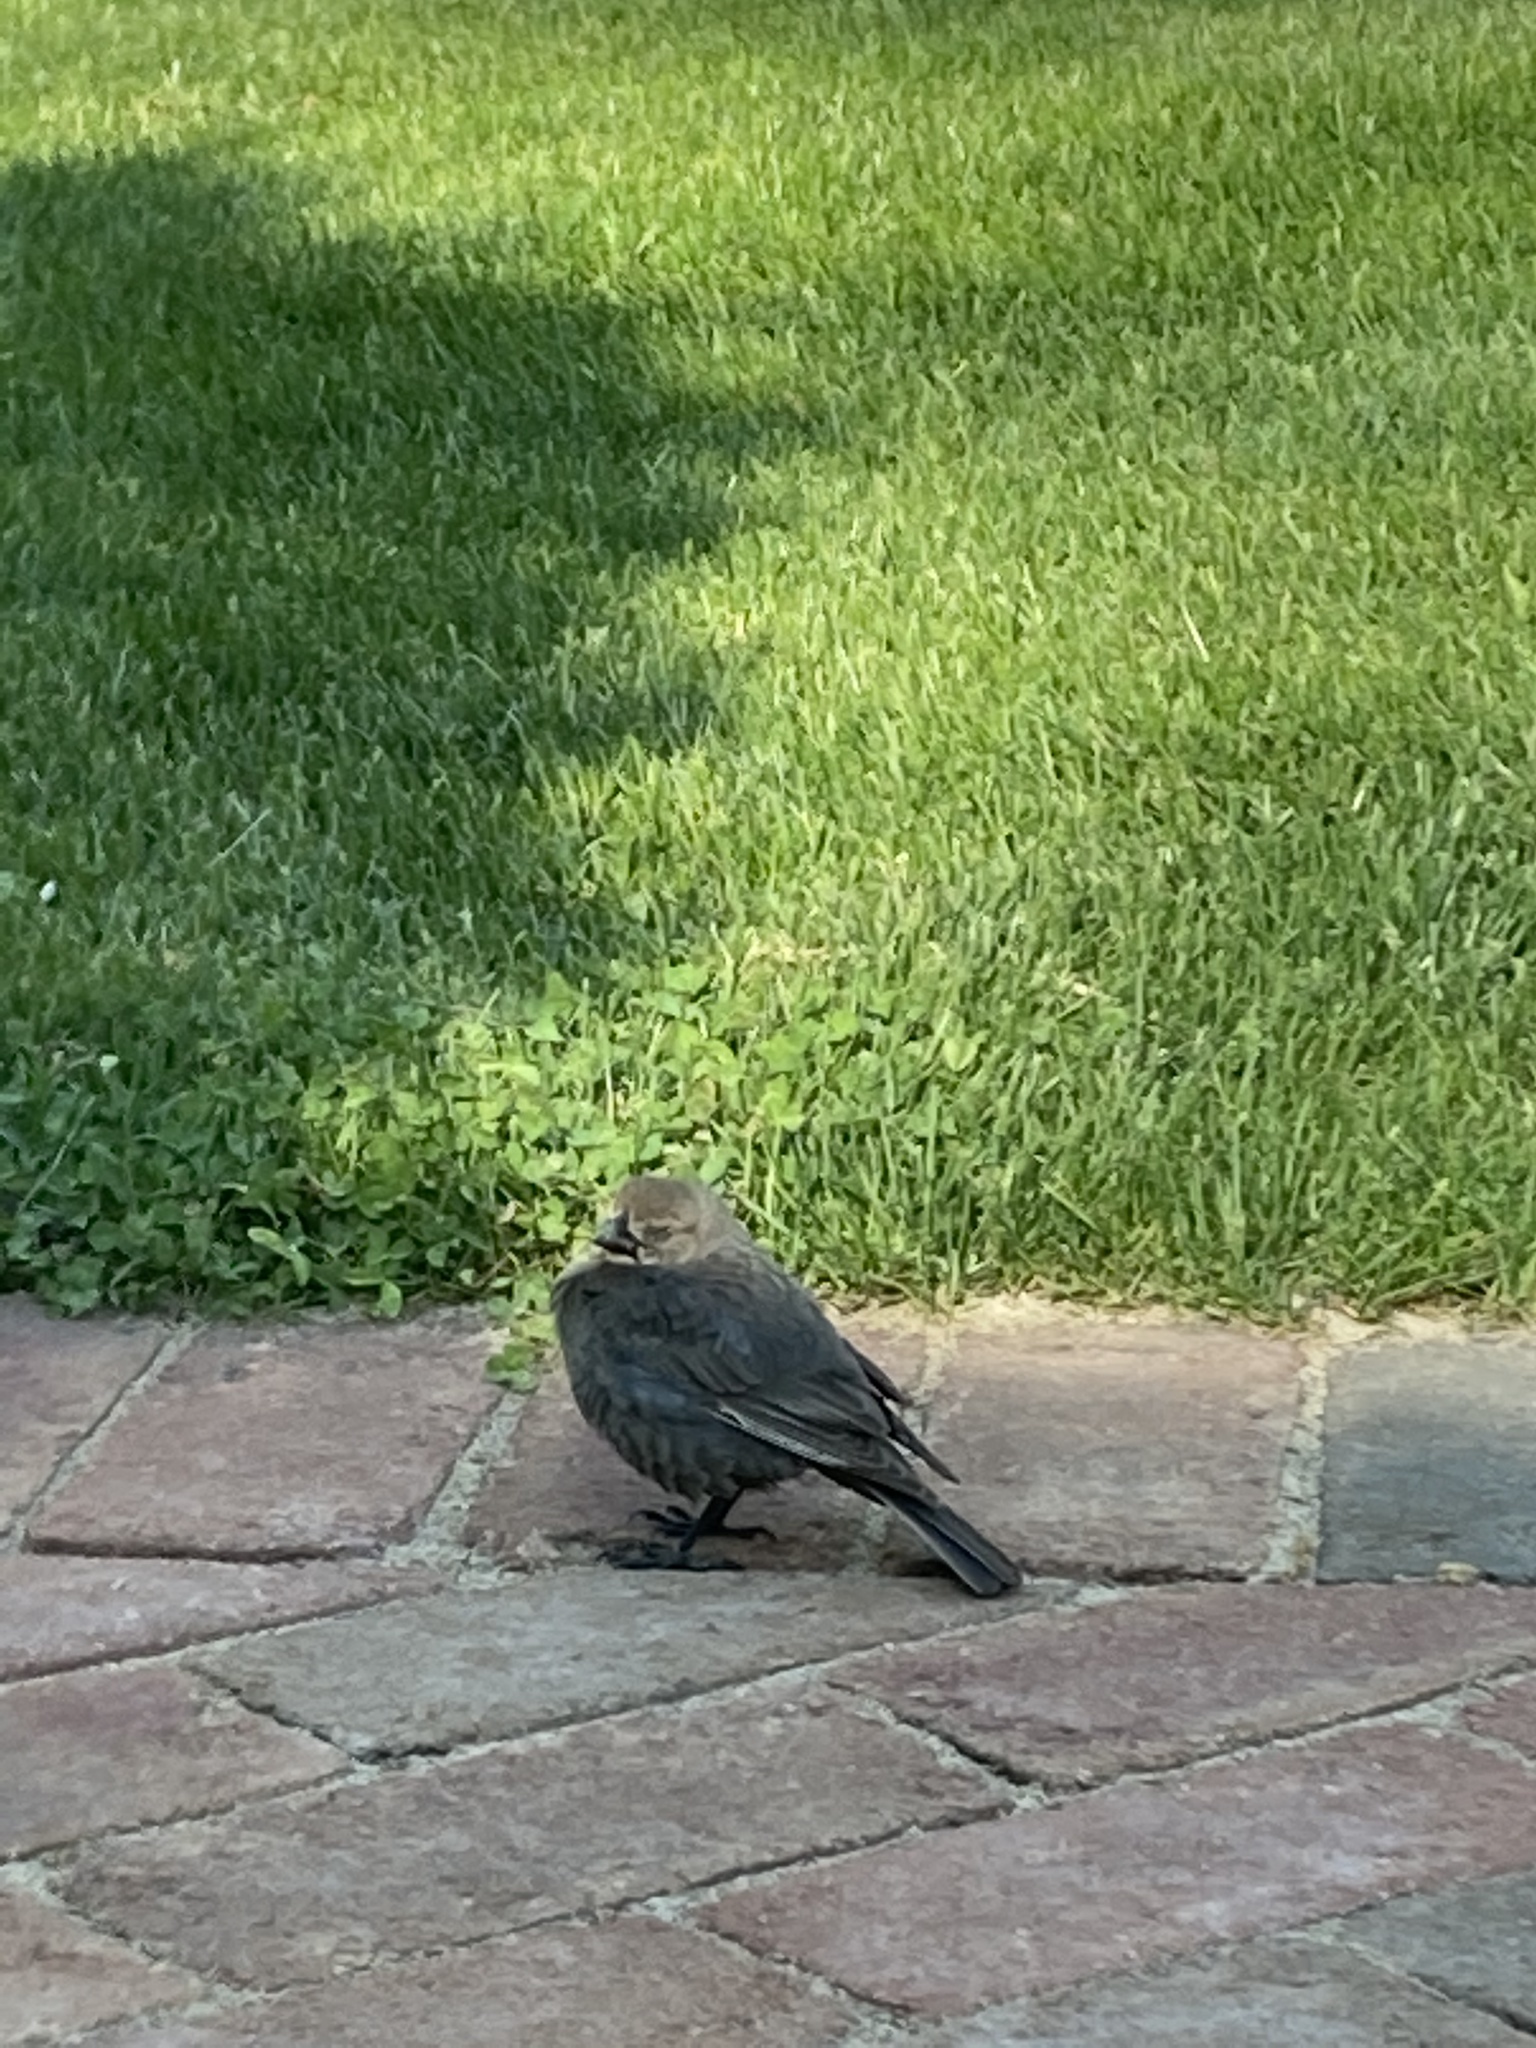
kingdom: Animalia
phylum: Chordata
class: Aves
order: Passeriformes
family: Icteridae
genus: Molothrus
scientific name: Molothrus ater
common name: Brown-headed cowbird
